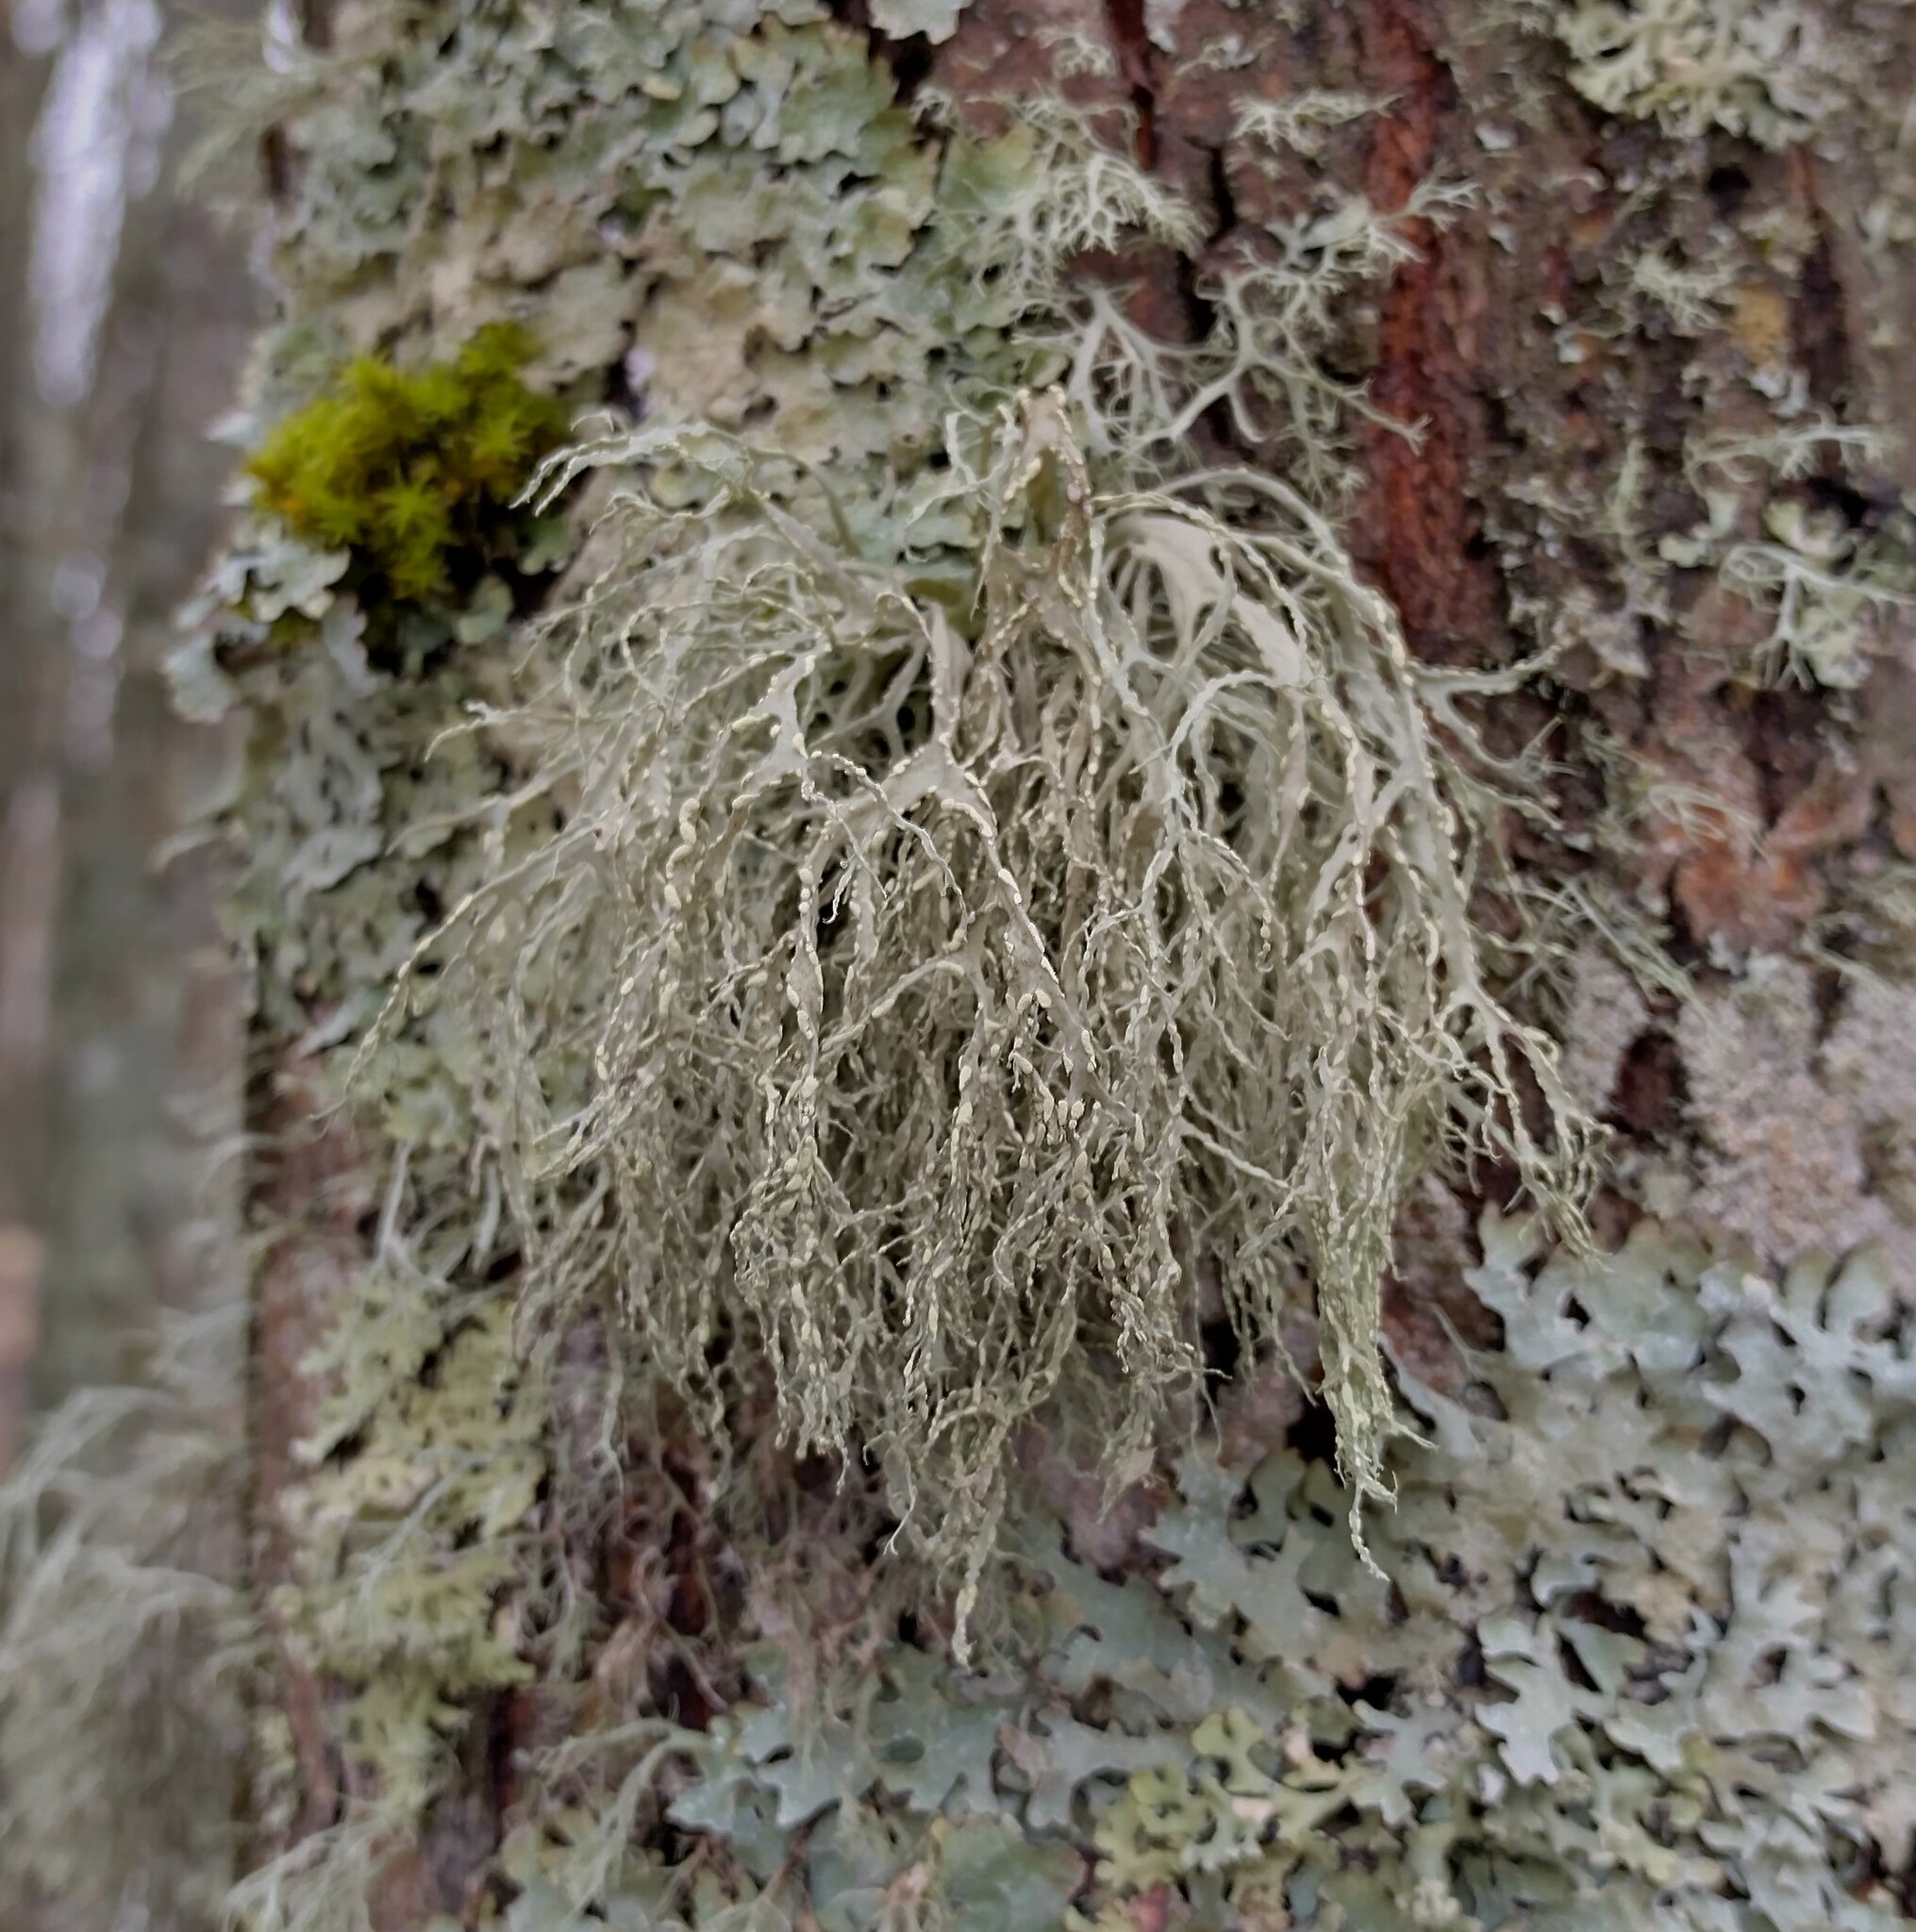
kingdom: Fungi
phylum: Ascomycota
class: Lecanoromycetes
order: Lecanorales
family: Ramalinaceae
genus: Ramalina
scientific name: Ramalina farinacea
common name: Farinose cartilage lichen
